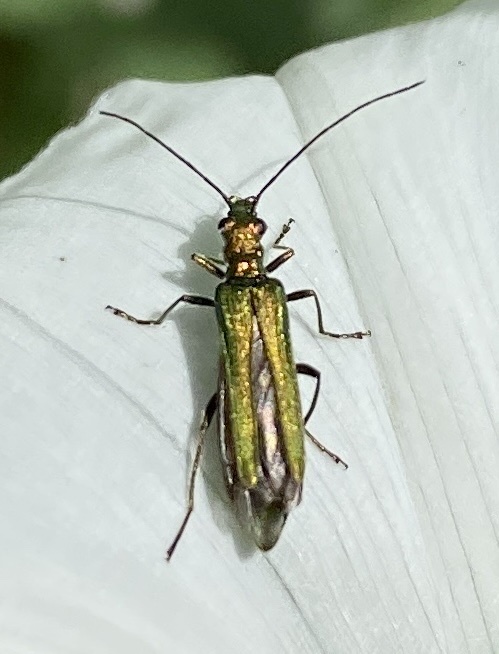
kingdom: Animalia
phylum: Arthropoda
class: Insecta
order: Coleoptera
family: Oedemeridae
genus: Oedemera
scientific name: Oedemera nobilis
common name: Swollen-thighed beetle
